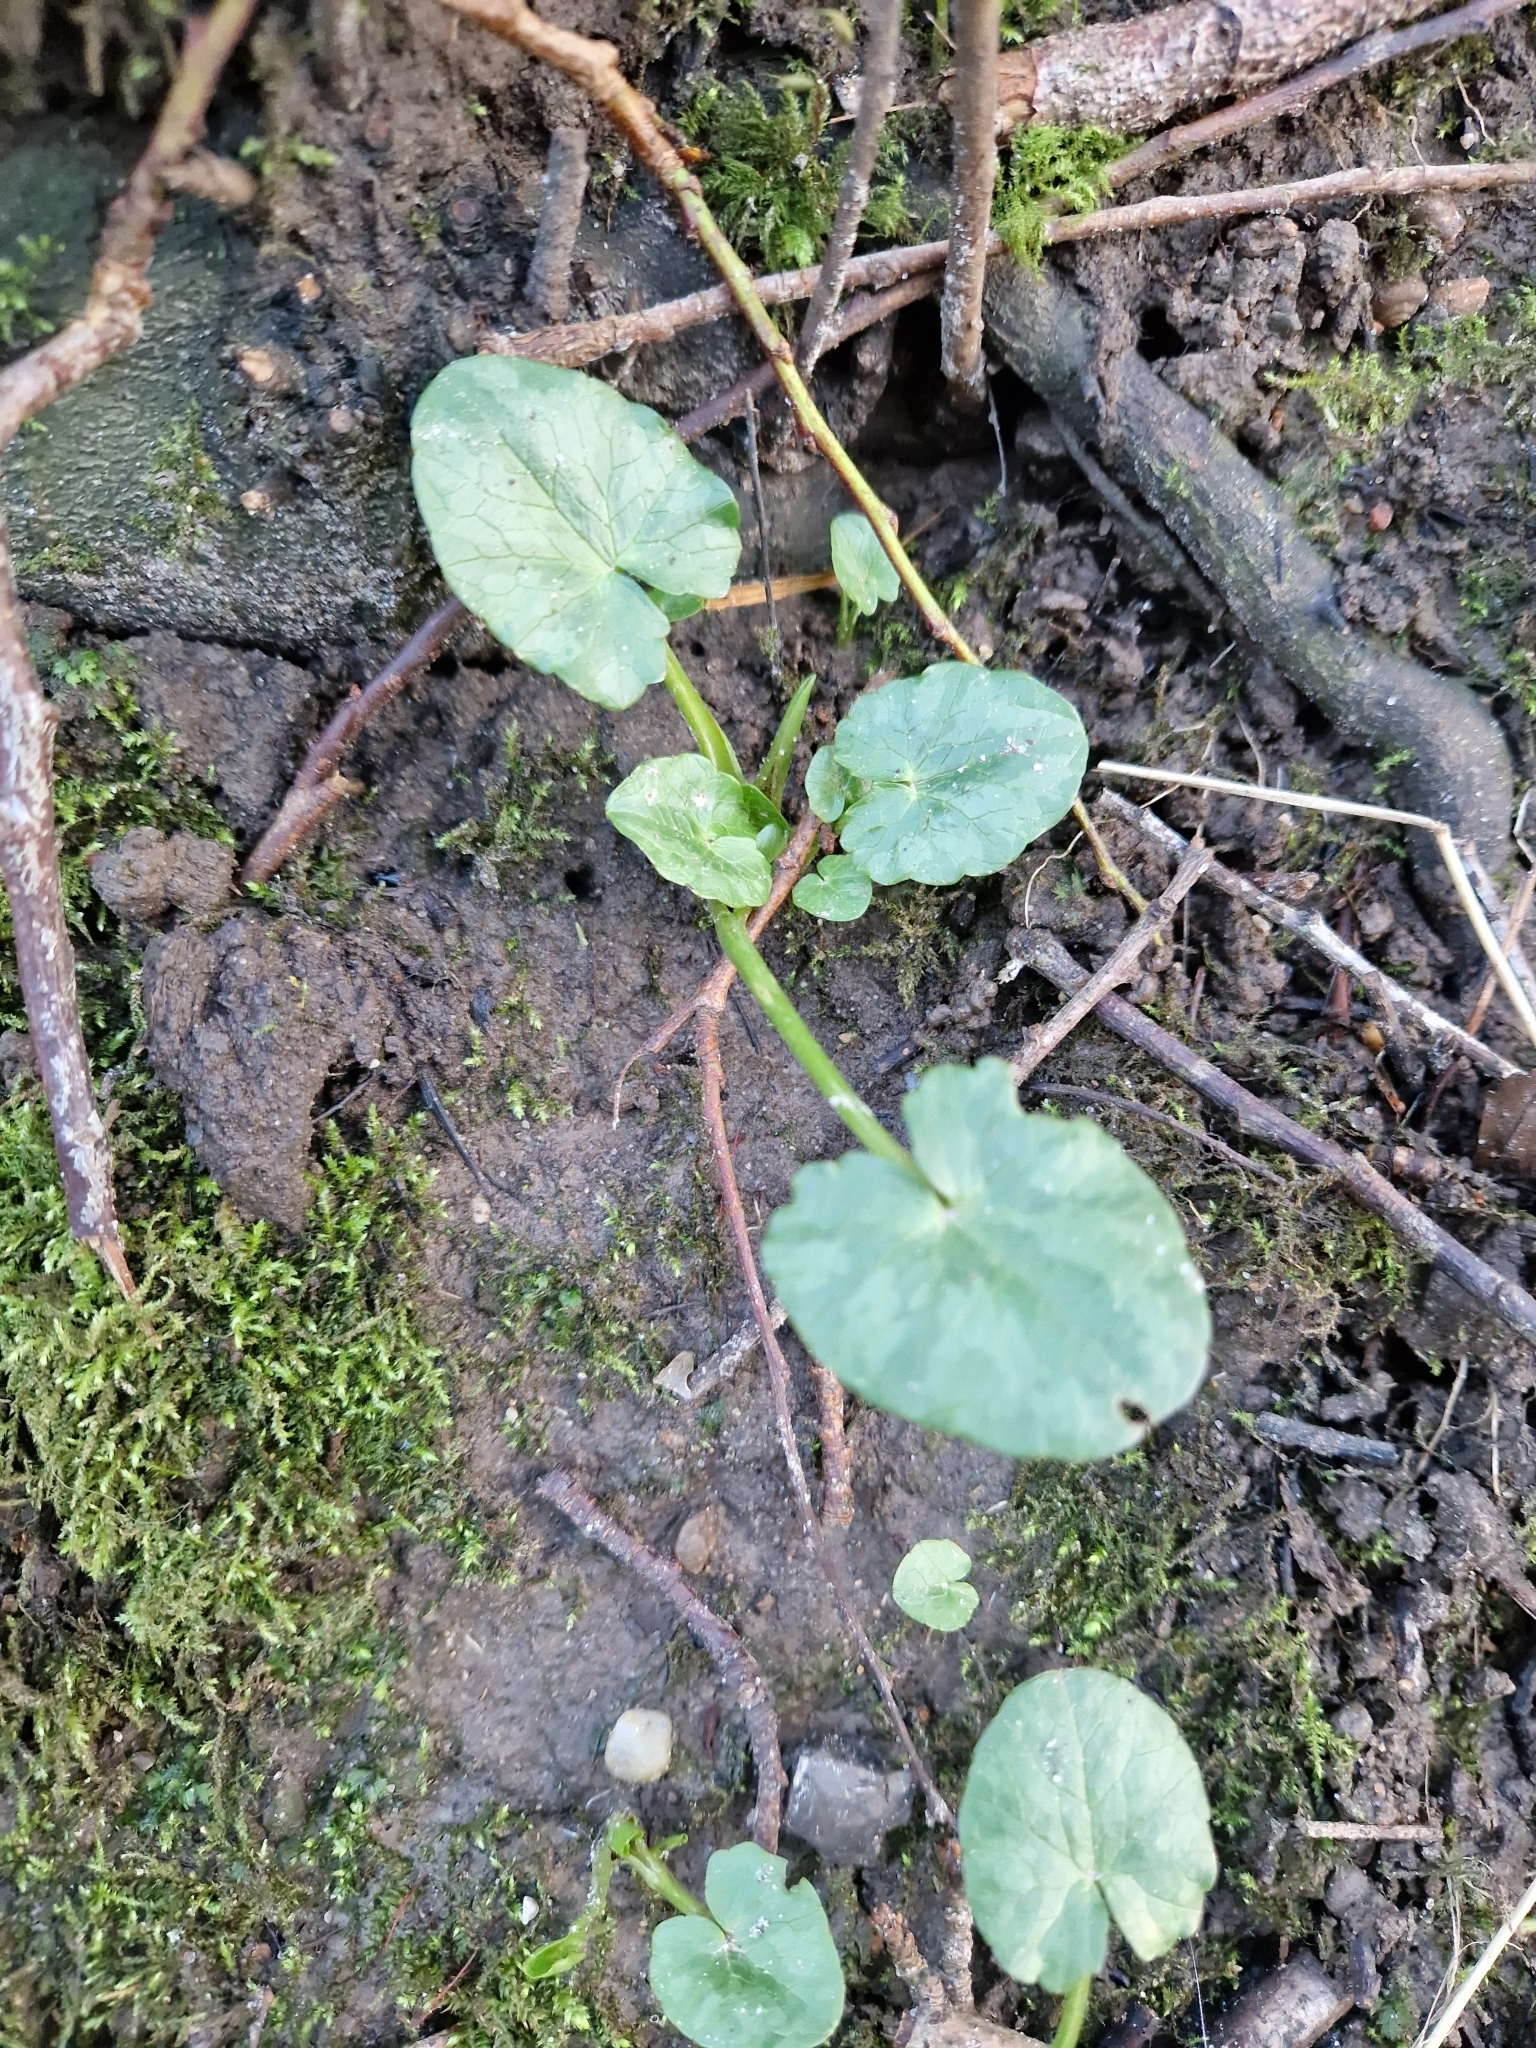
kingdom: Plantae
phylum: Tracheophyta
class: Magnoliopsida
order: Ranunculales
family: Ranunculaceae
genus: Ficaria
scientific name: Ficaria verna
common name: Lesser celandine
